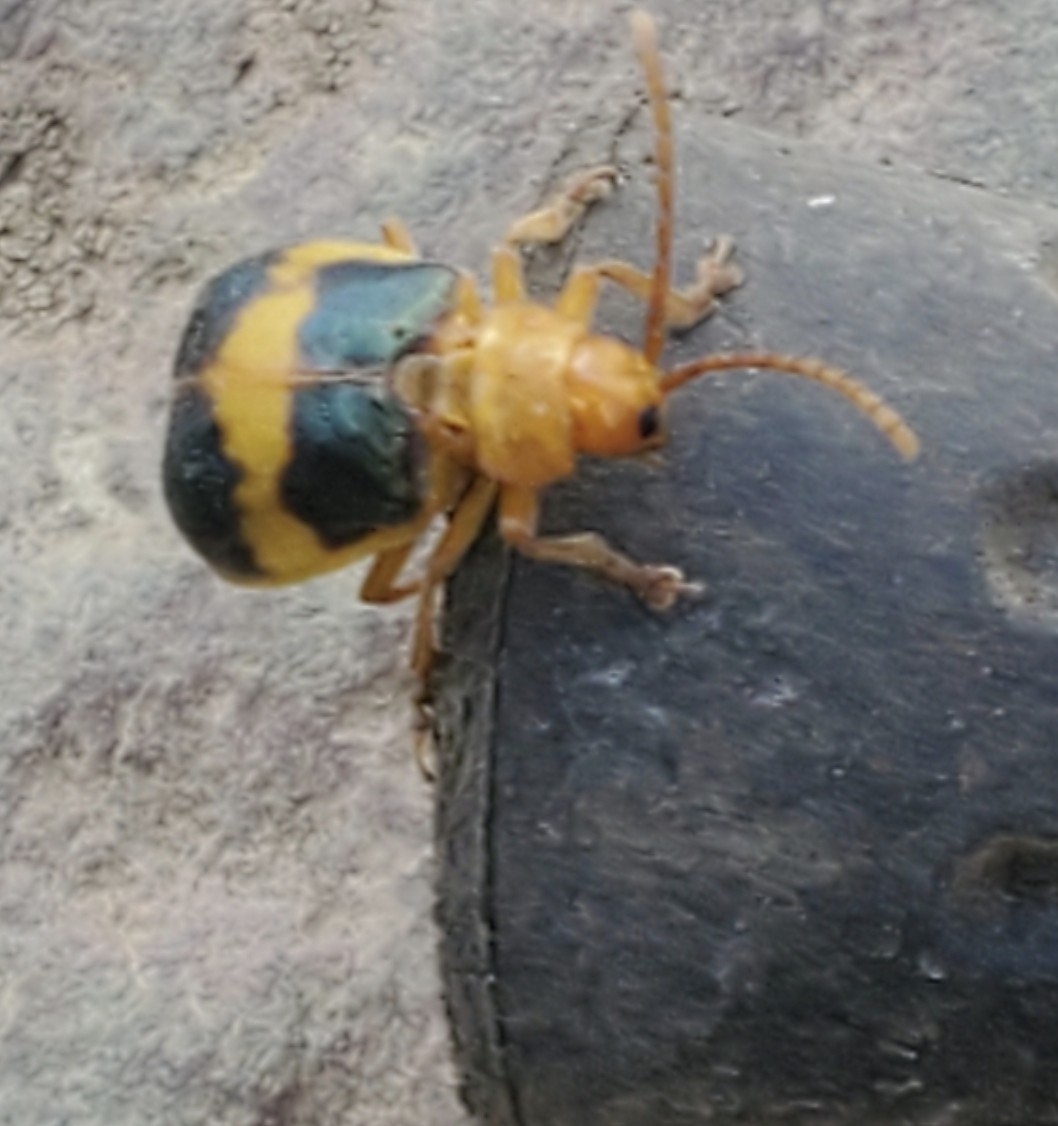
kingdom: Animalia
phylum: Arthropoda
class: Insecta
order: Coleoptera
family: Chrysomelidae
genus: Monocesta
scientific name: Monocesta coryli
